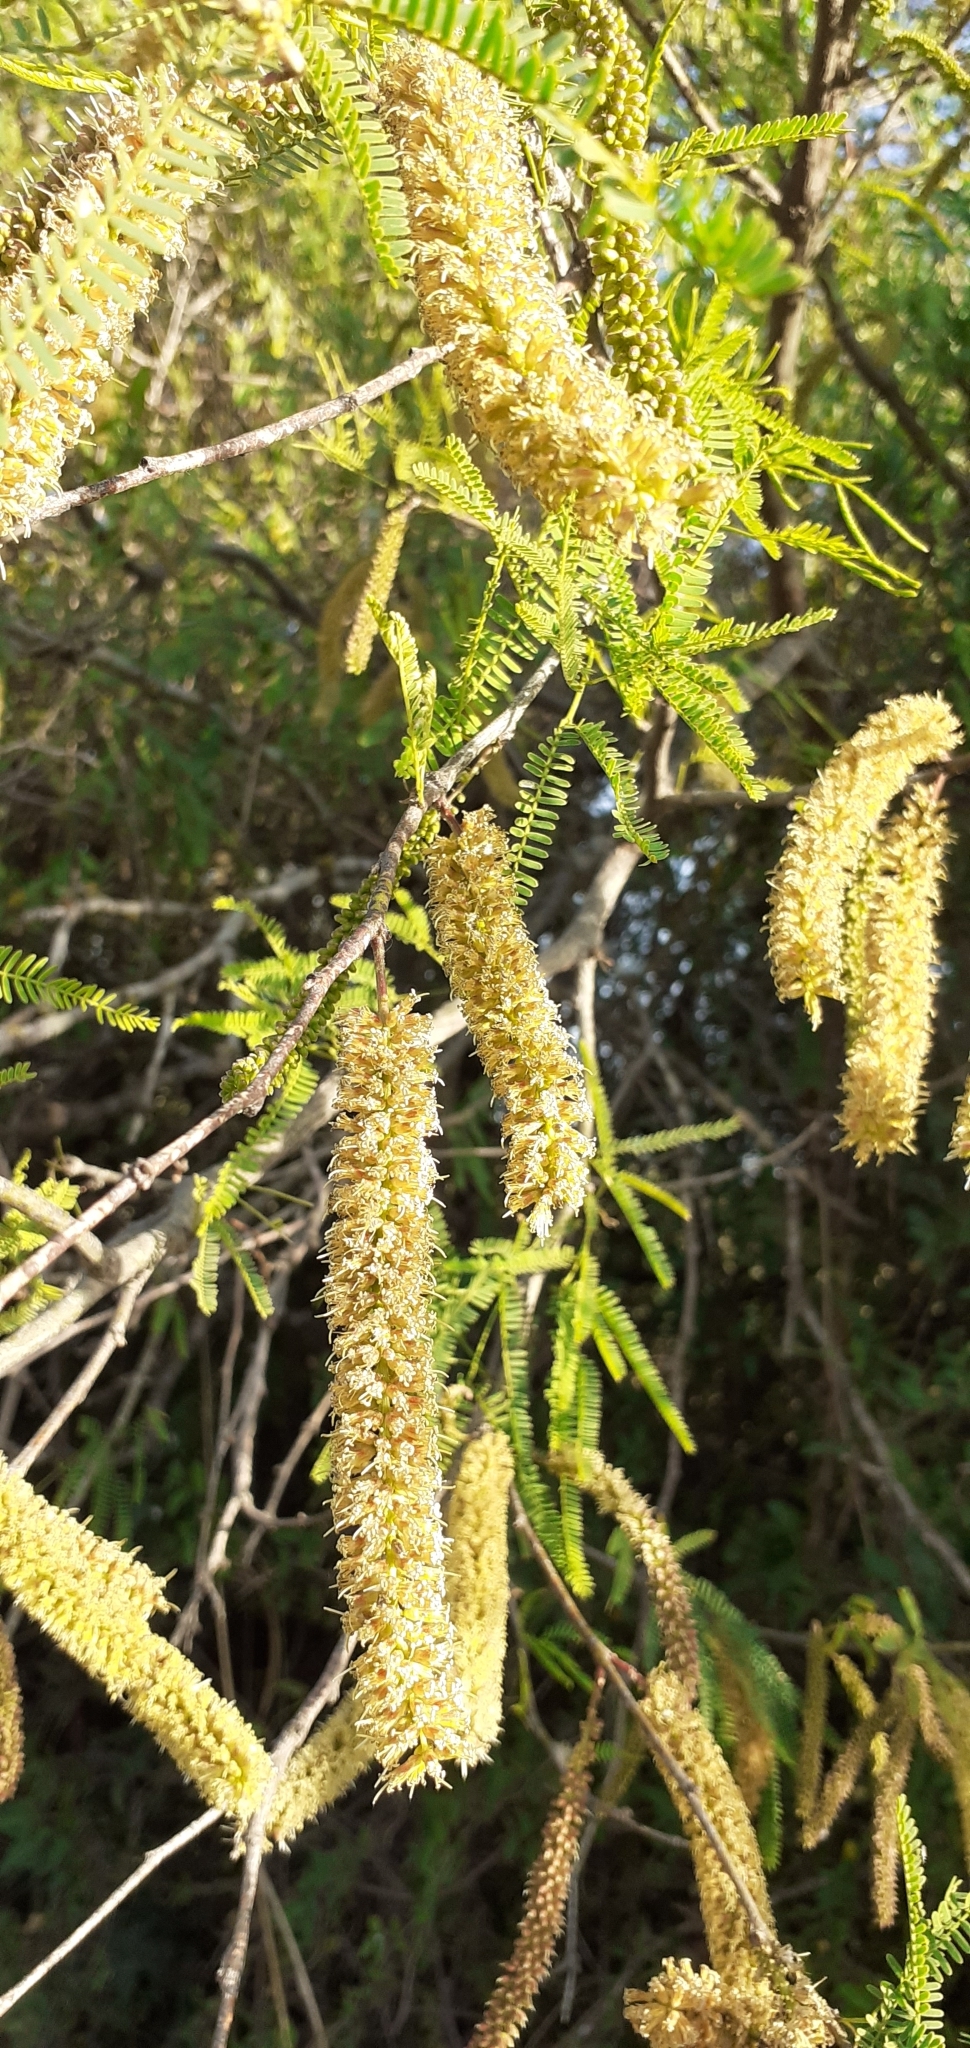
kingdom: Plantae
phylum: Tracheophyta
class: Magnoliopsida
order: Fabales
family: Fabaceae
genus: Prosopis
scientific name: Prosopis alba
